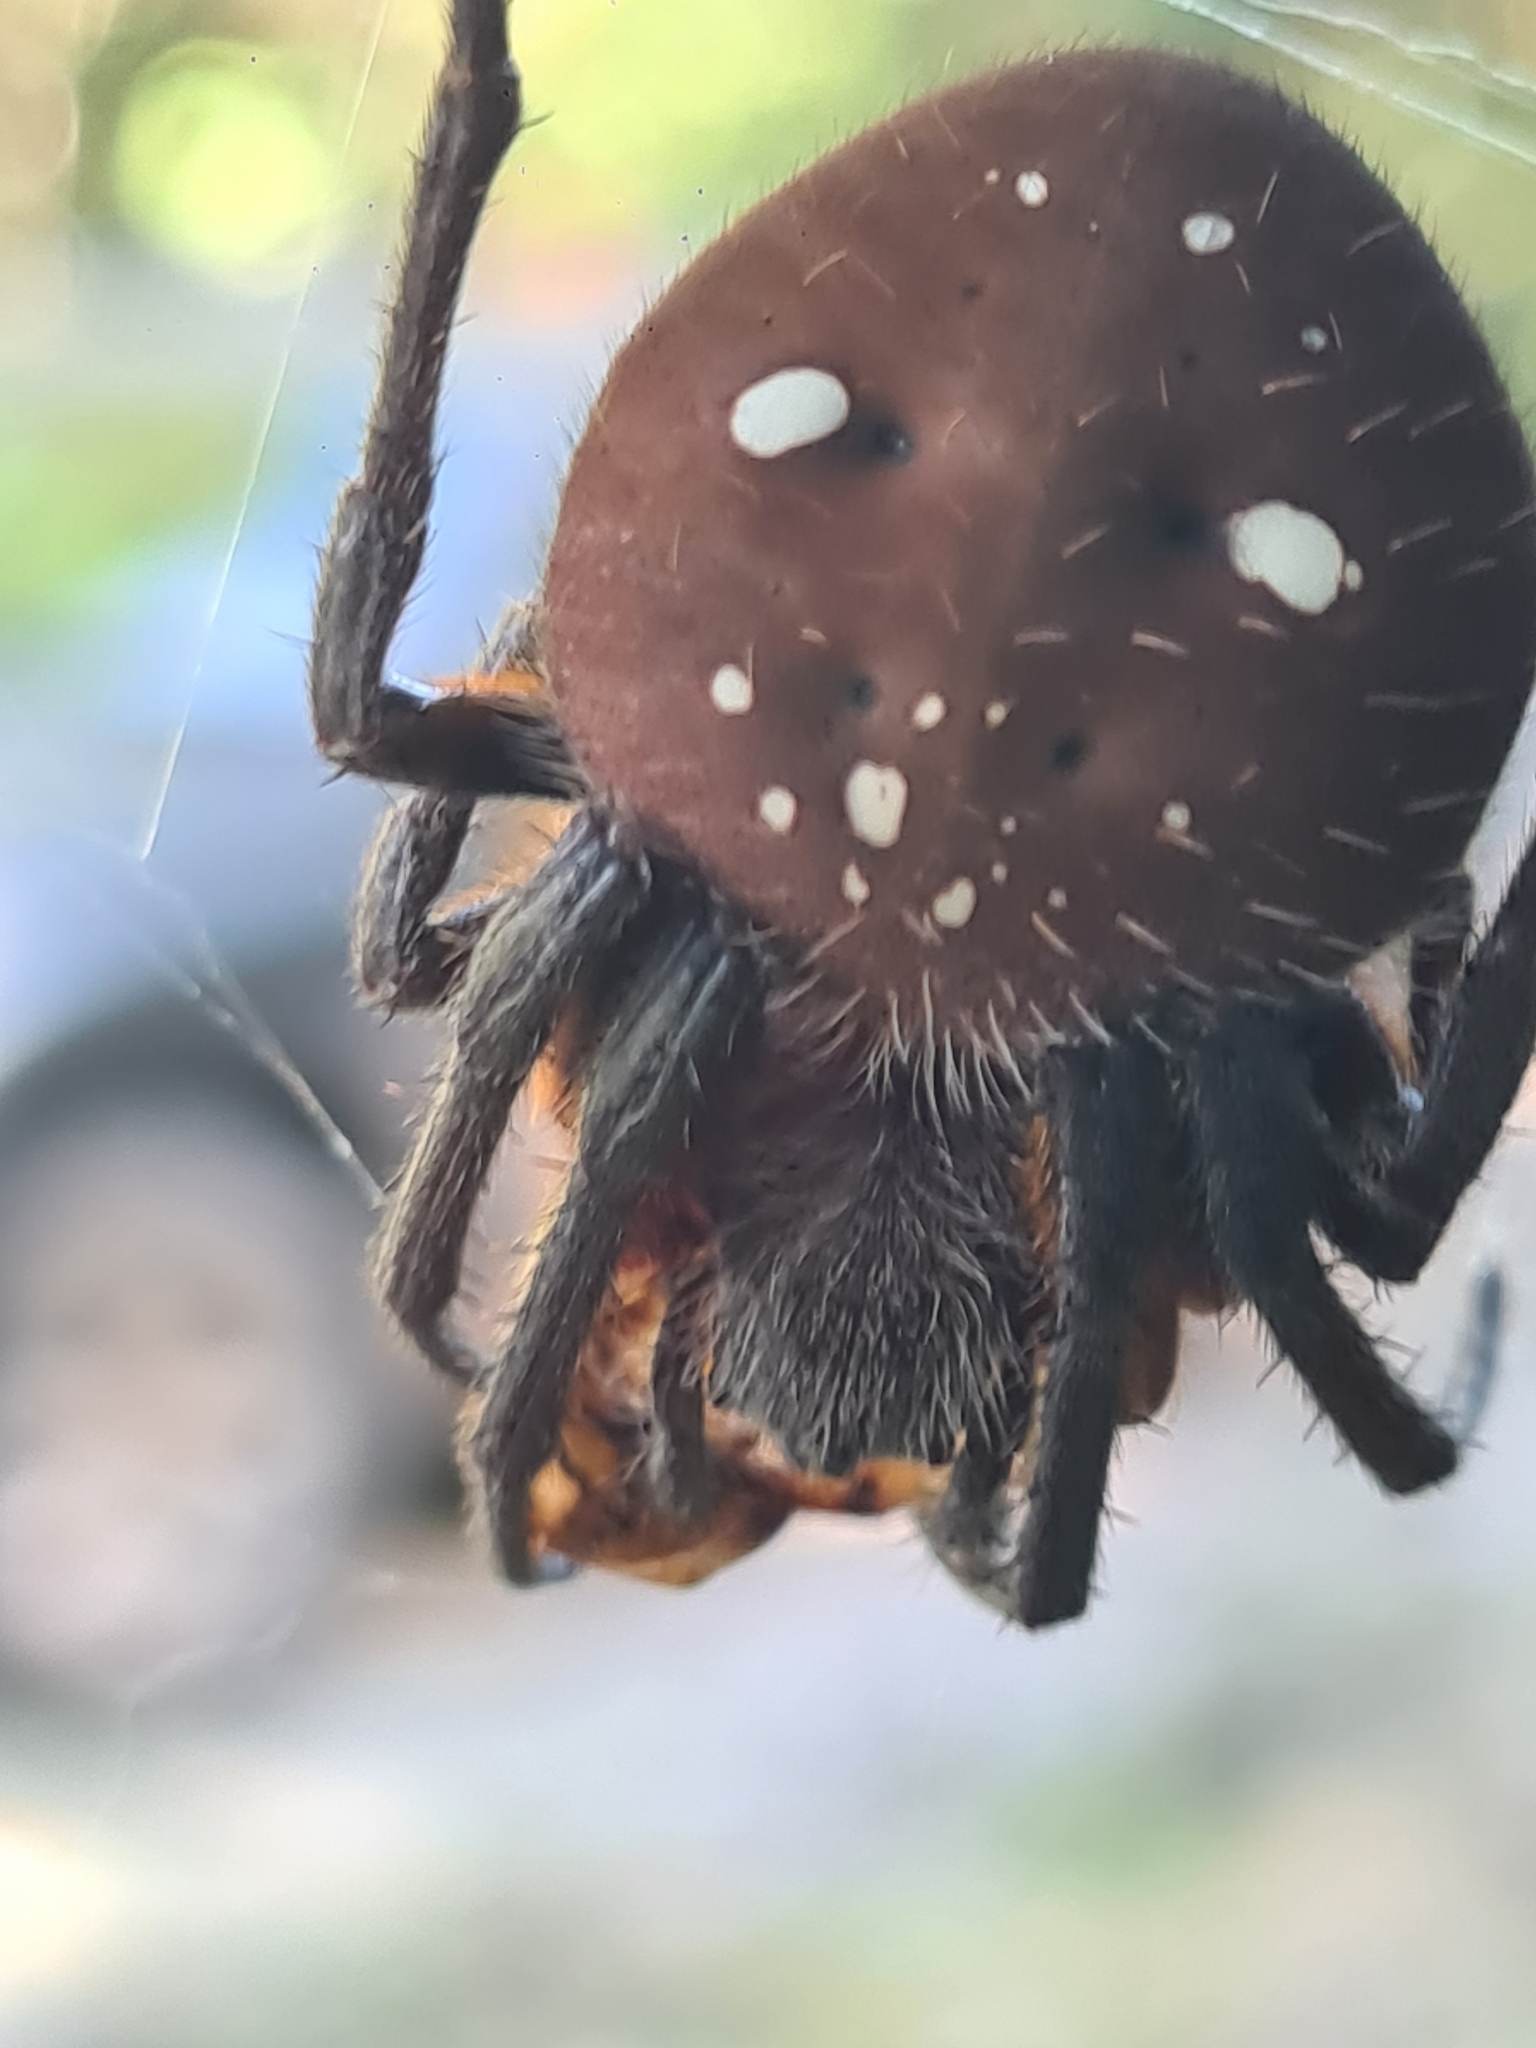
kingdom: Animalia
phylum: Arthropoda
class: Arachnida
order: Araneae
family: Araneidae
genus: Eriophora
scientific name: Eriophora fuliginea
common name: Orb weavers
